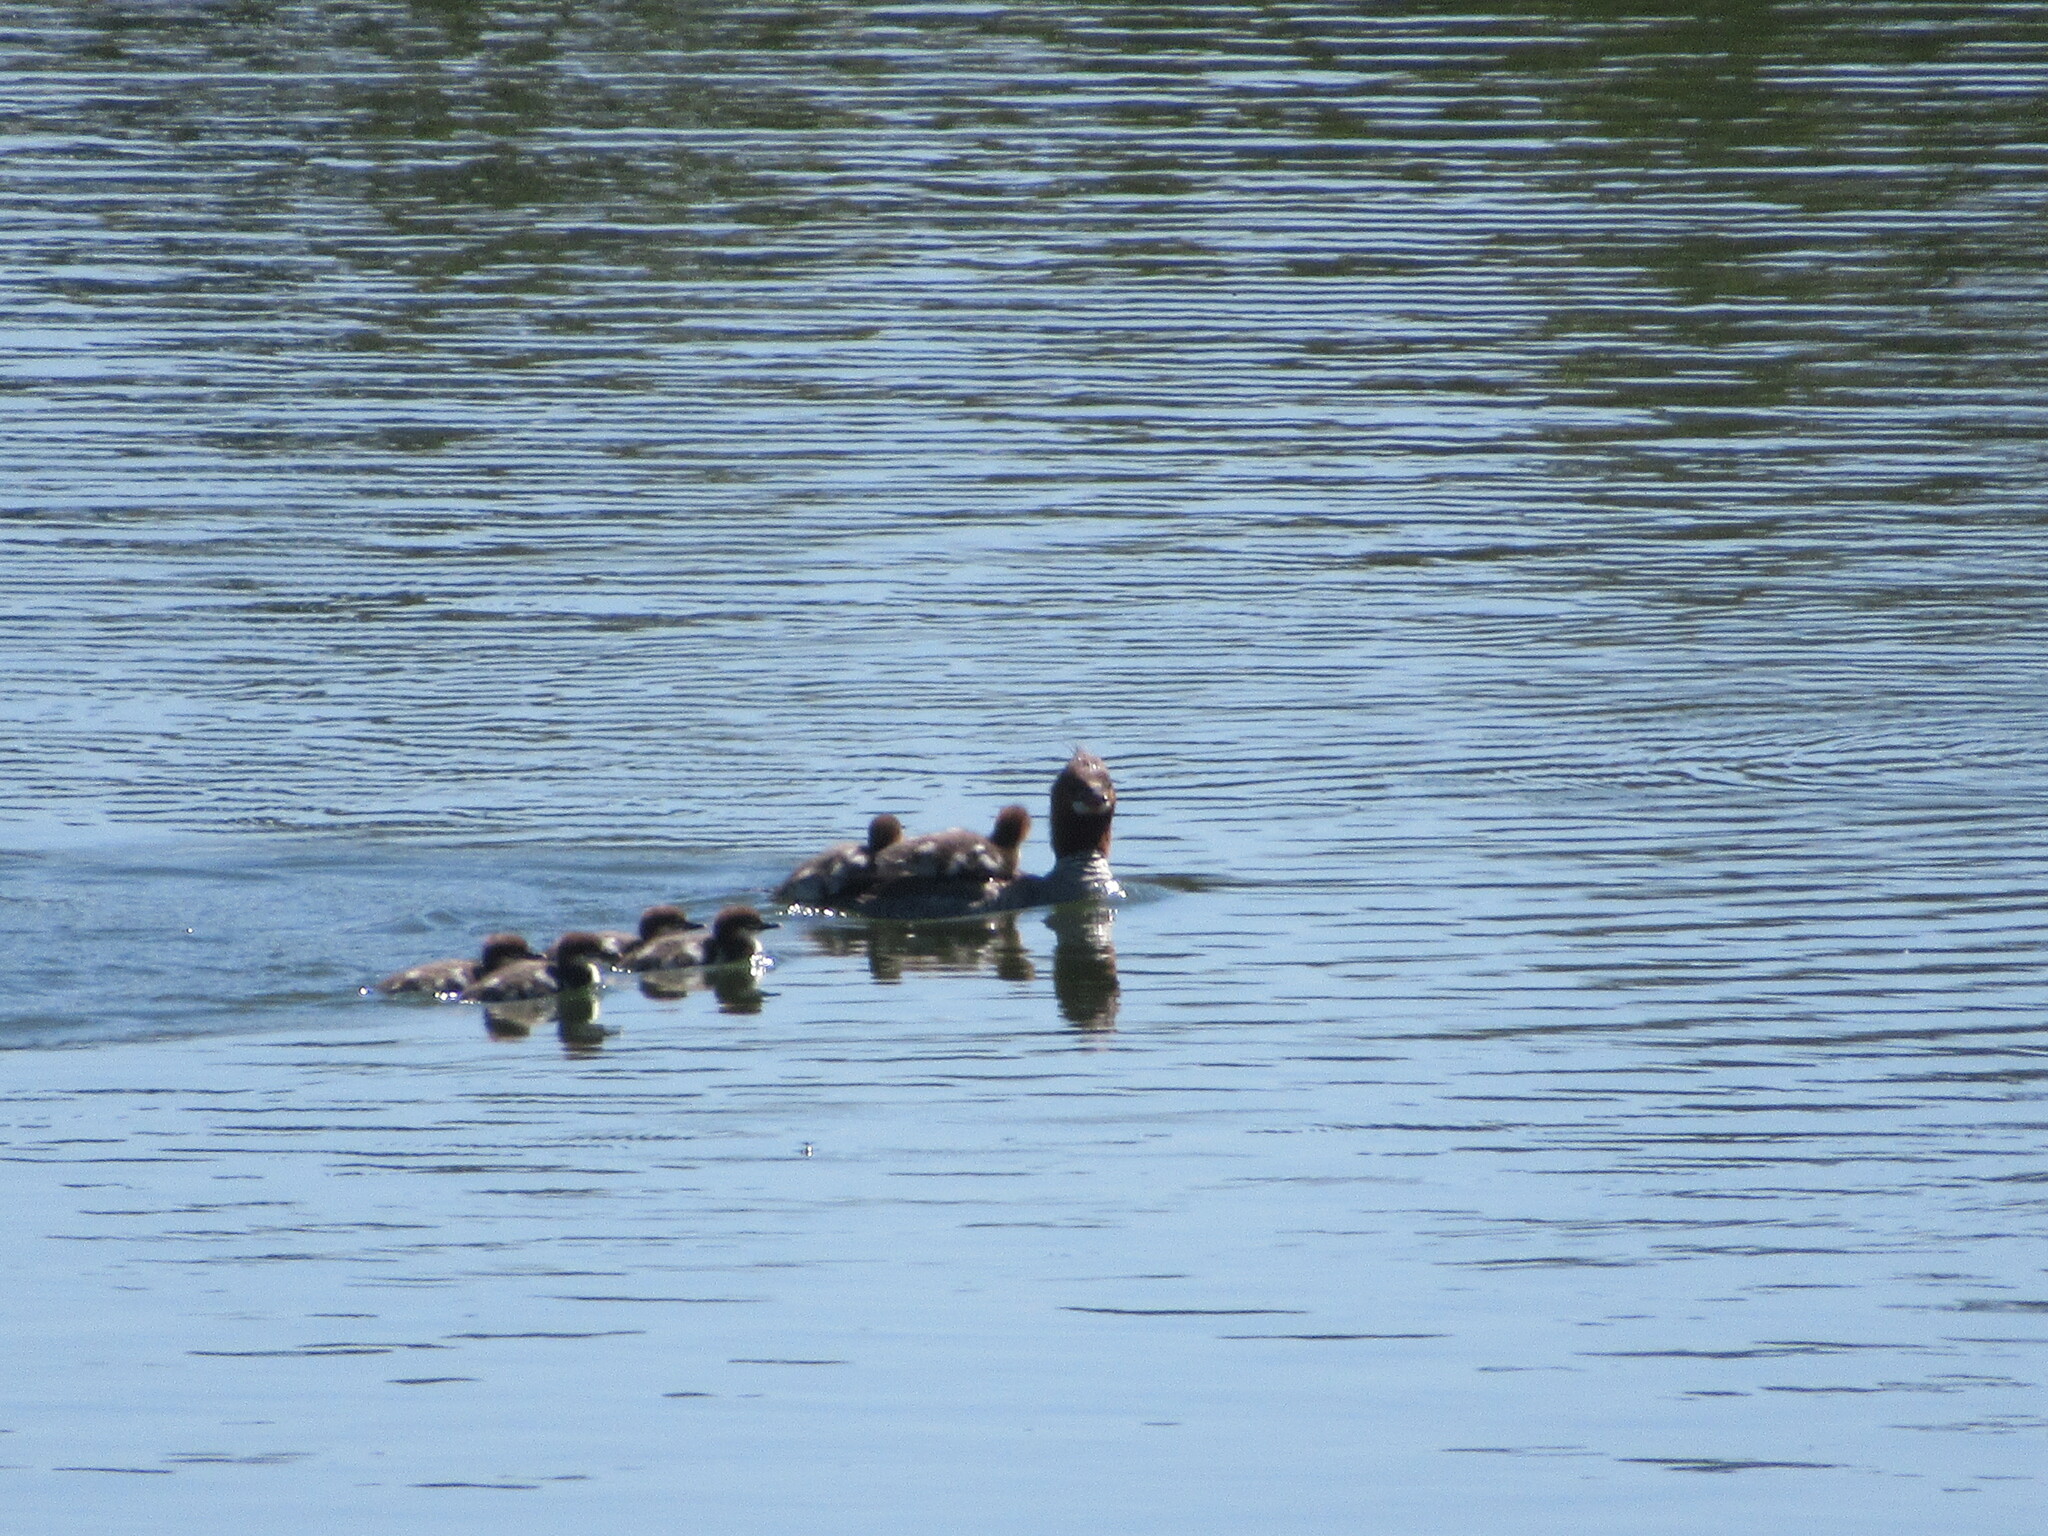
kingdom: Animalia
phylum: Chordata
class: Aves
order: Anseriformes
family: Anatidae
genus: Mergus
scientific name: Mergus merganser
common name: Common merganser
